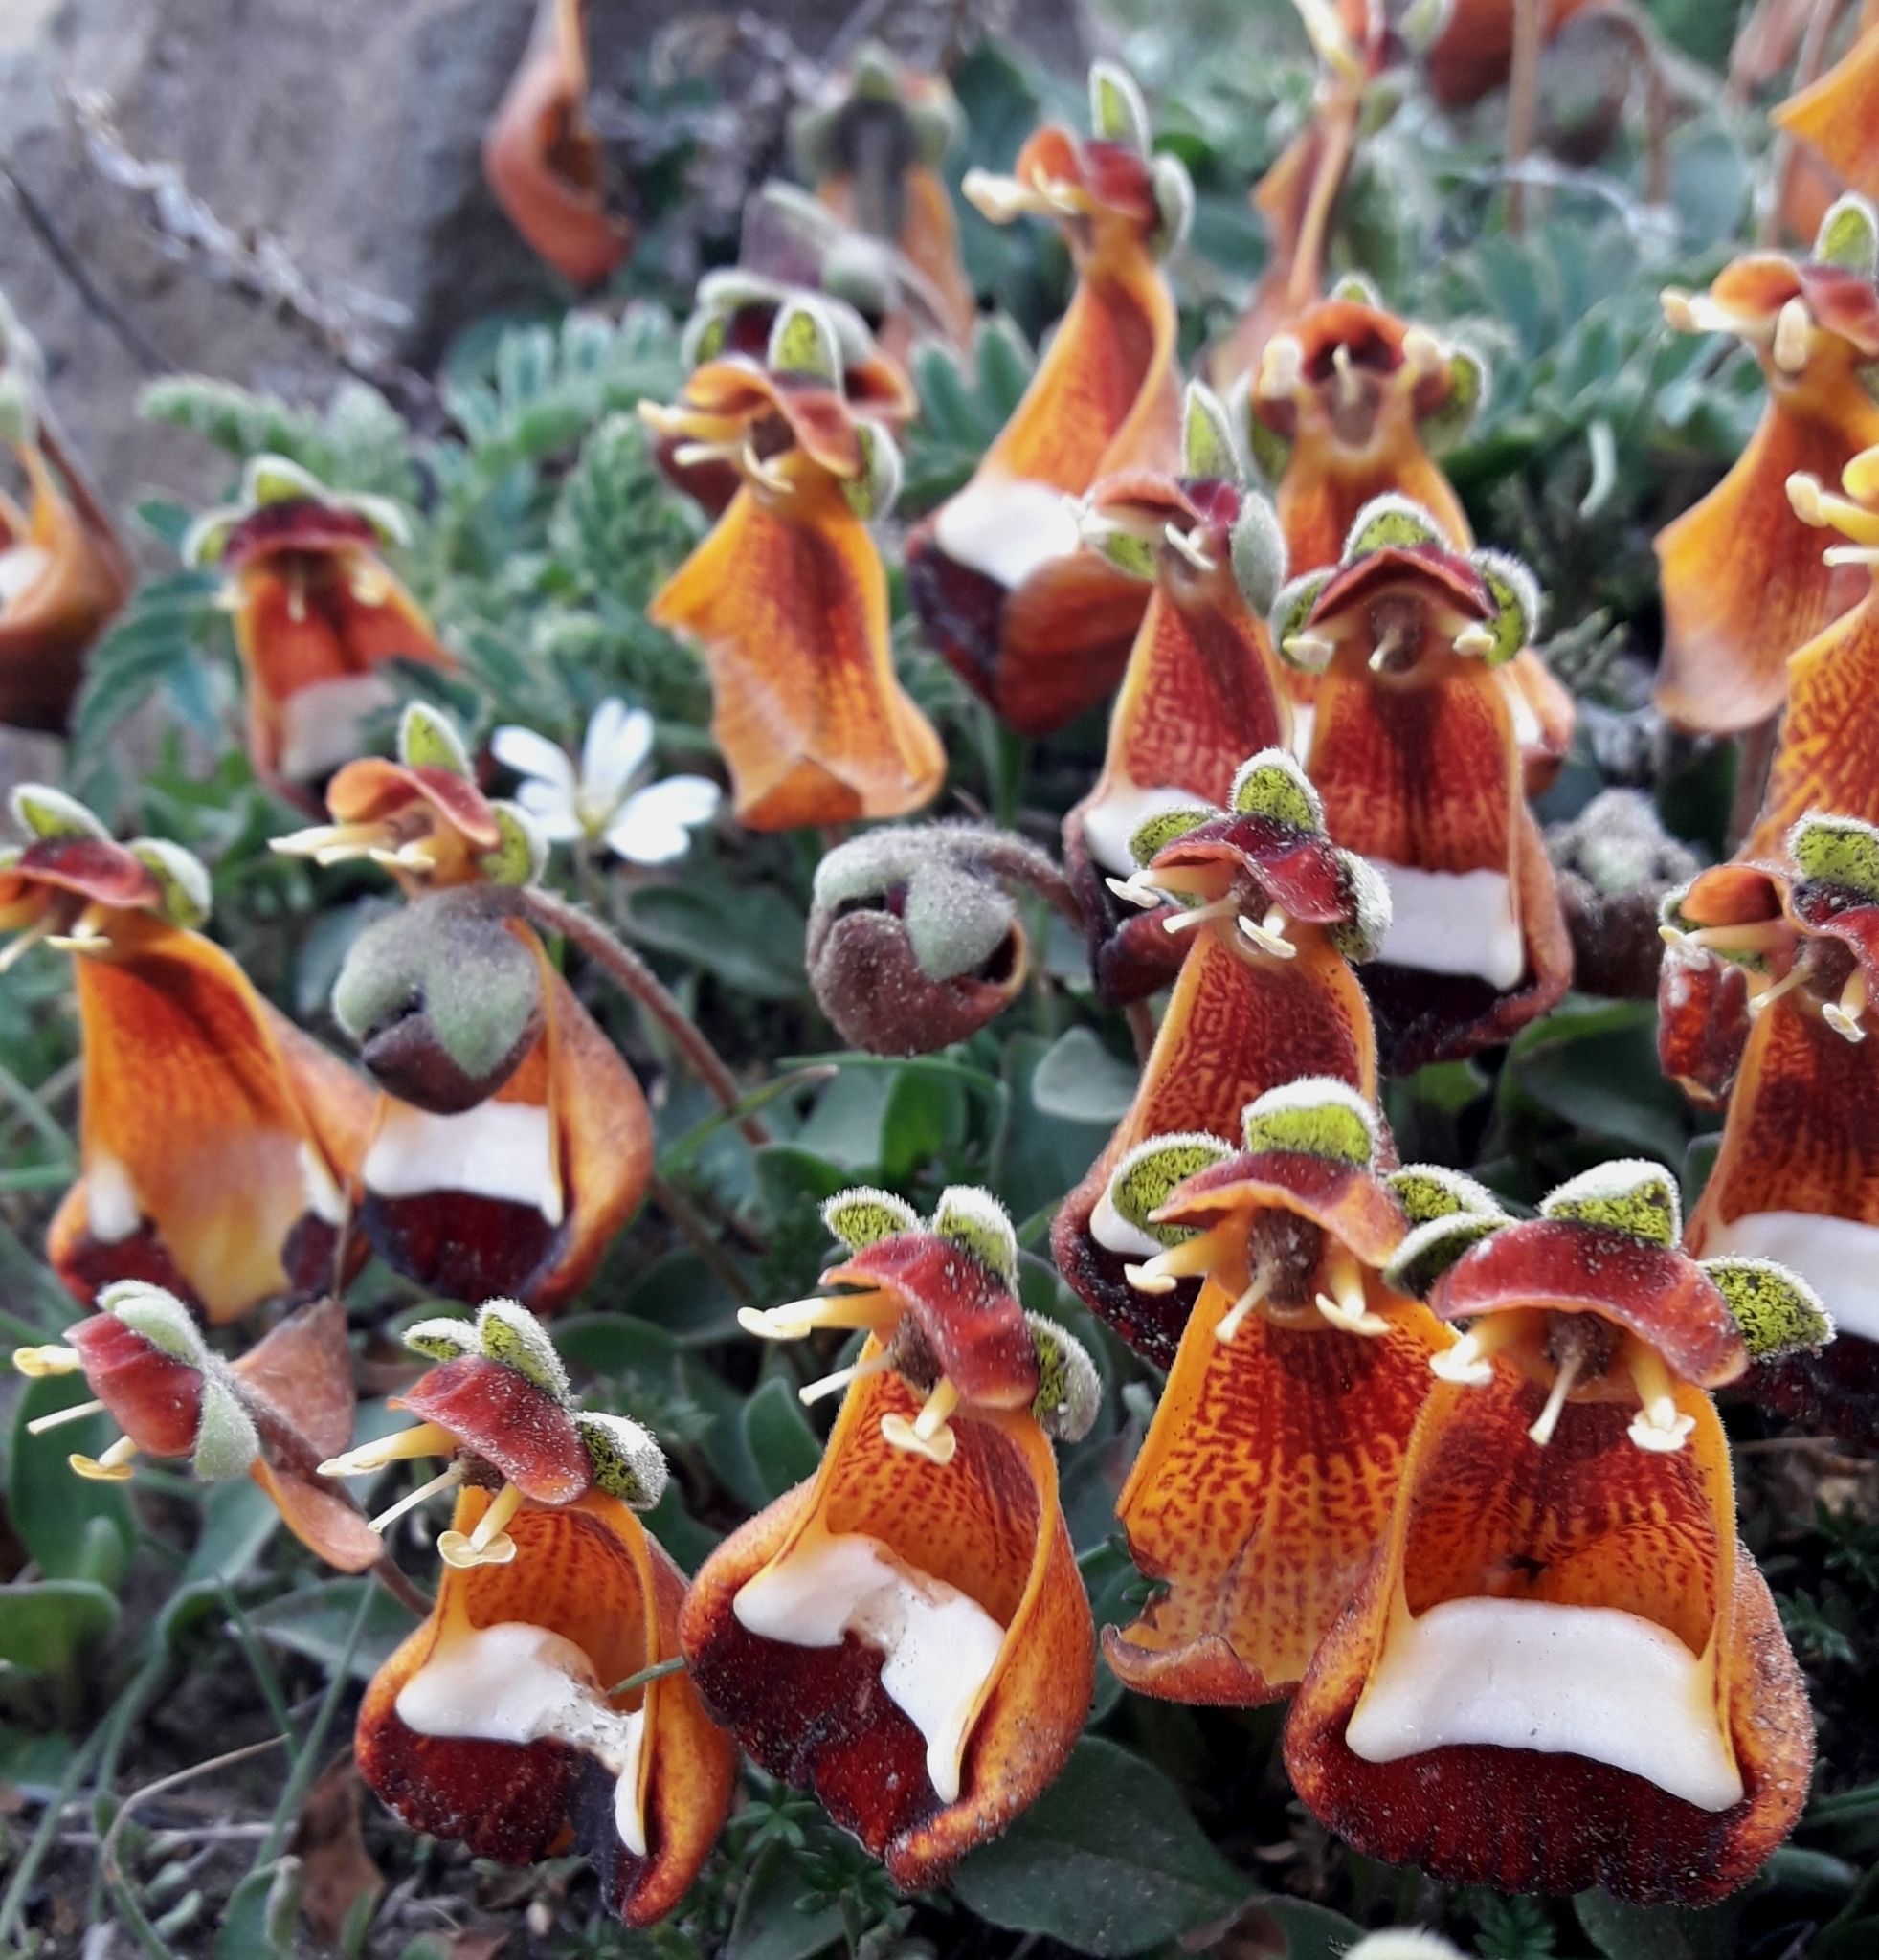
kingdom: Plantae
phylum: Tracheophyta
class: Magnoliopsida
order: Lamiales
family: Calceolariaceae
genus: Calceolaria
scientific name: Calceolaria uniflora
